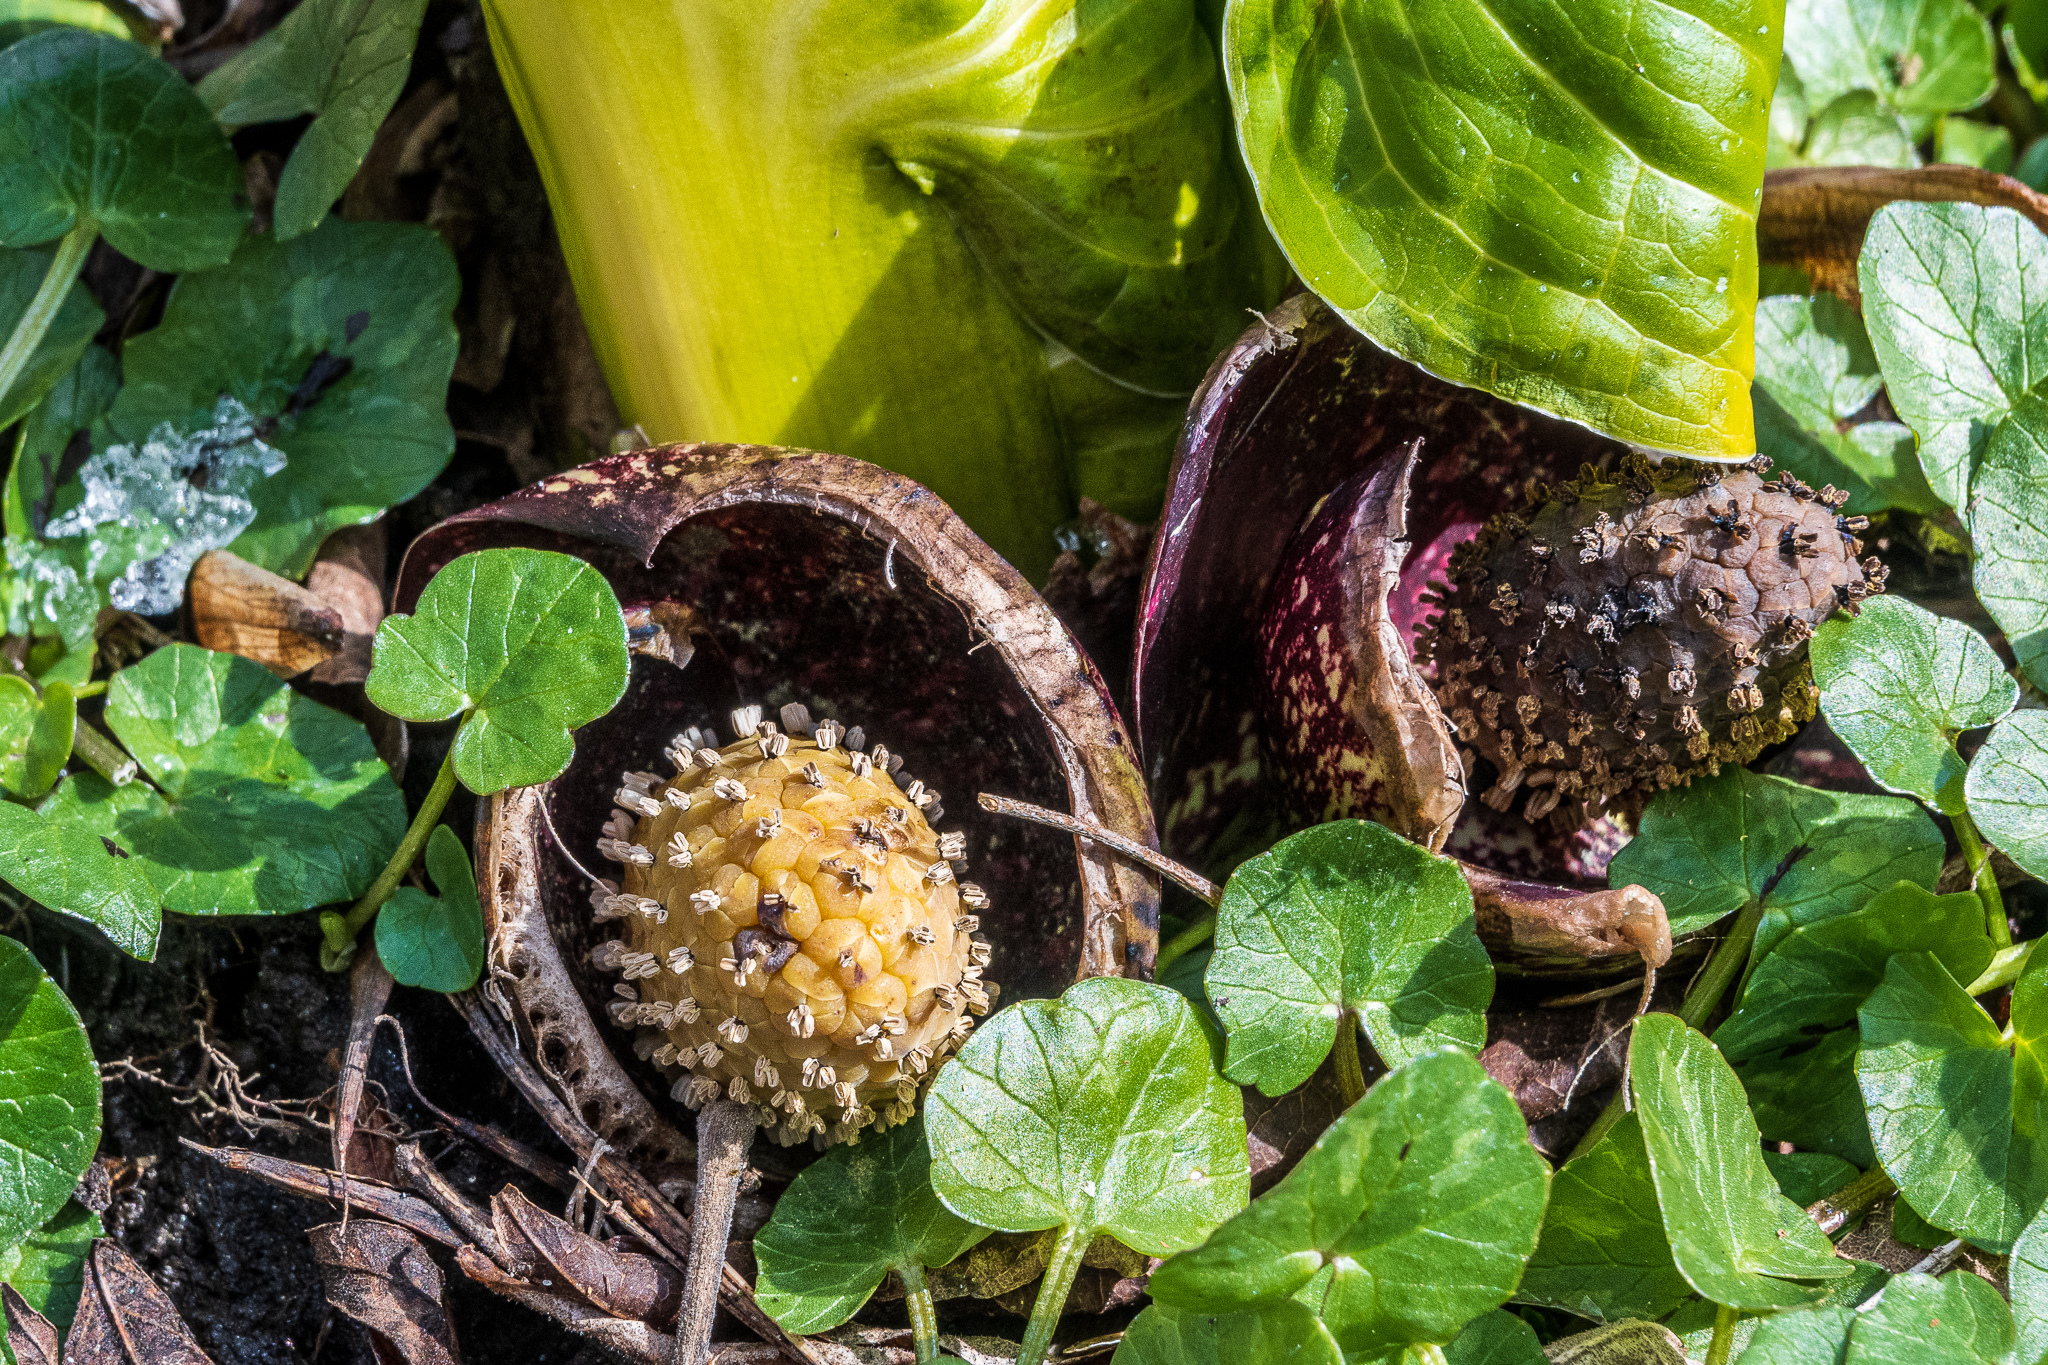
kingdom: Plantae
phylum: Tracheophyta
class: Liliopsida
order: Alismatales
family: Araceae
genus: Symplocarpus
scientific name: Symplocarpus foetidus
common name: Eastern skunk cabbage
